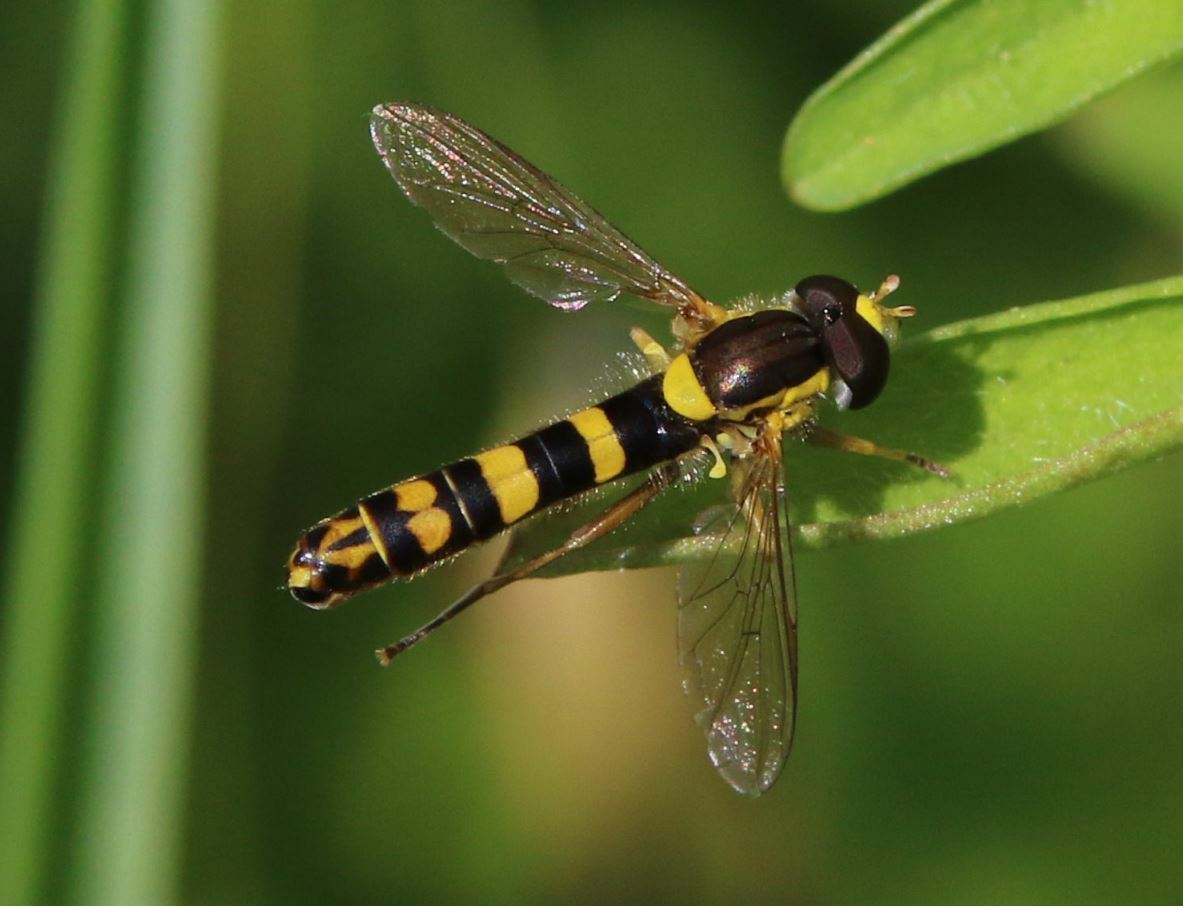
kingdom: Animalia
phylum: Arthropoda
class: Insecta
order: Diptera
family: Syrphidae
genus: Sphaerophoria
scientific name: Sphaerophoria scripta
